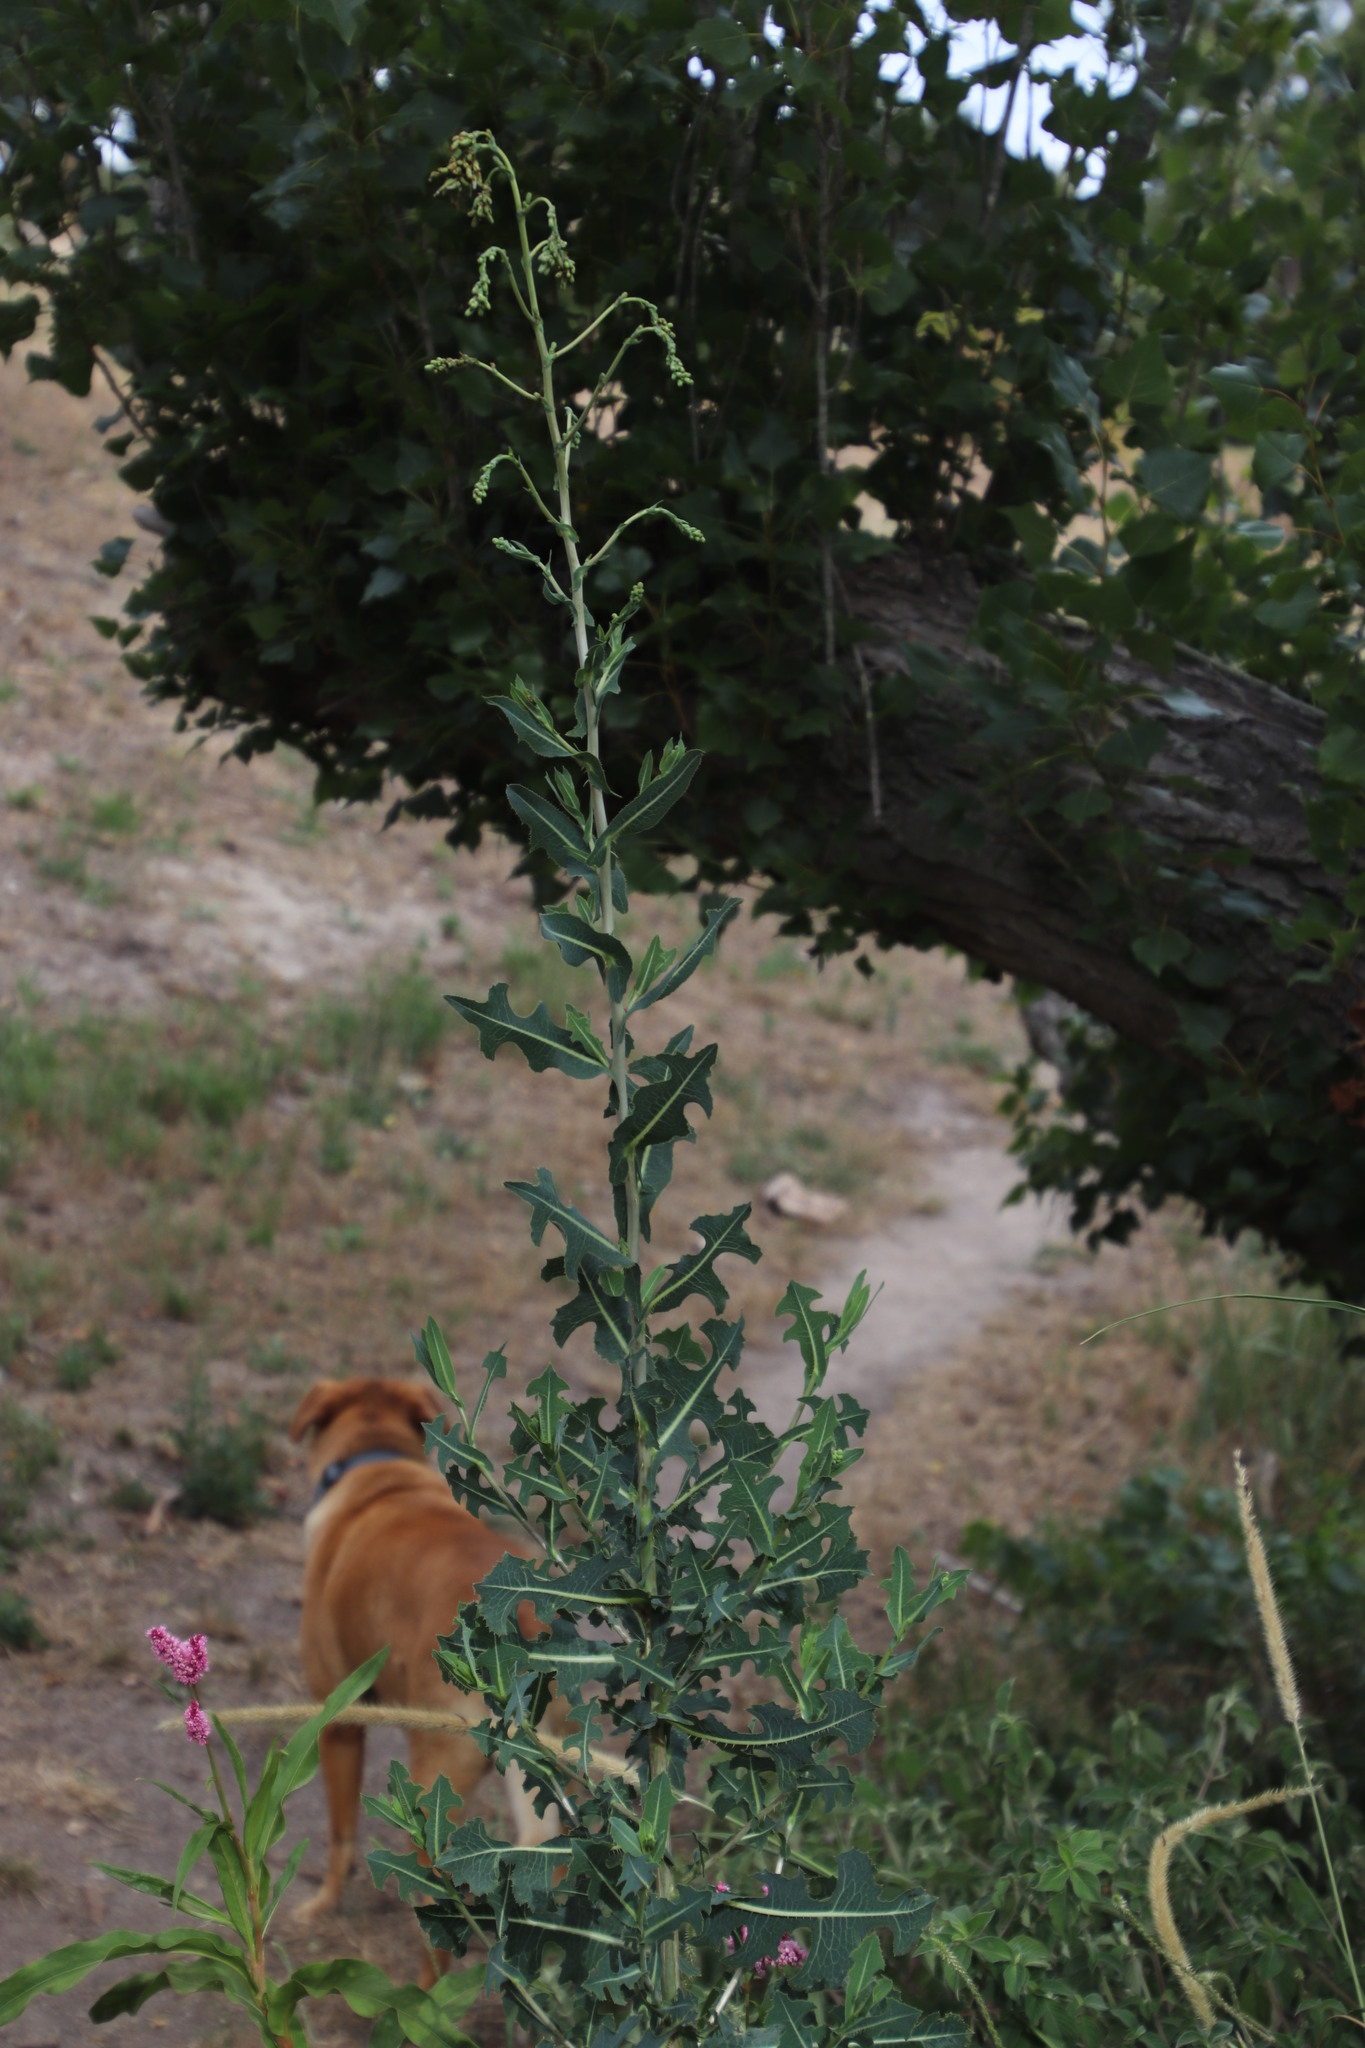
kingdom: Plantae
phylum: Tracheophyta
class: Magnoliopsida
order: Asterales
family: Asteraceae
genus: Lactuca
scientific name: Lactuca serriola
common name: Prickly lettuce
